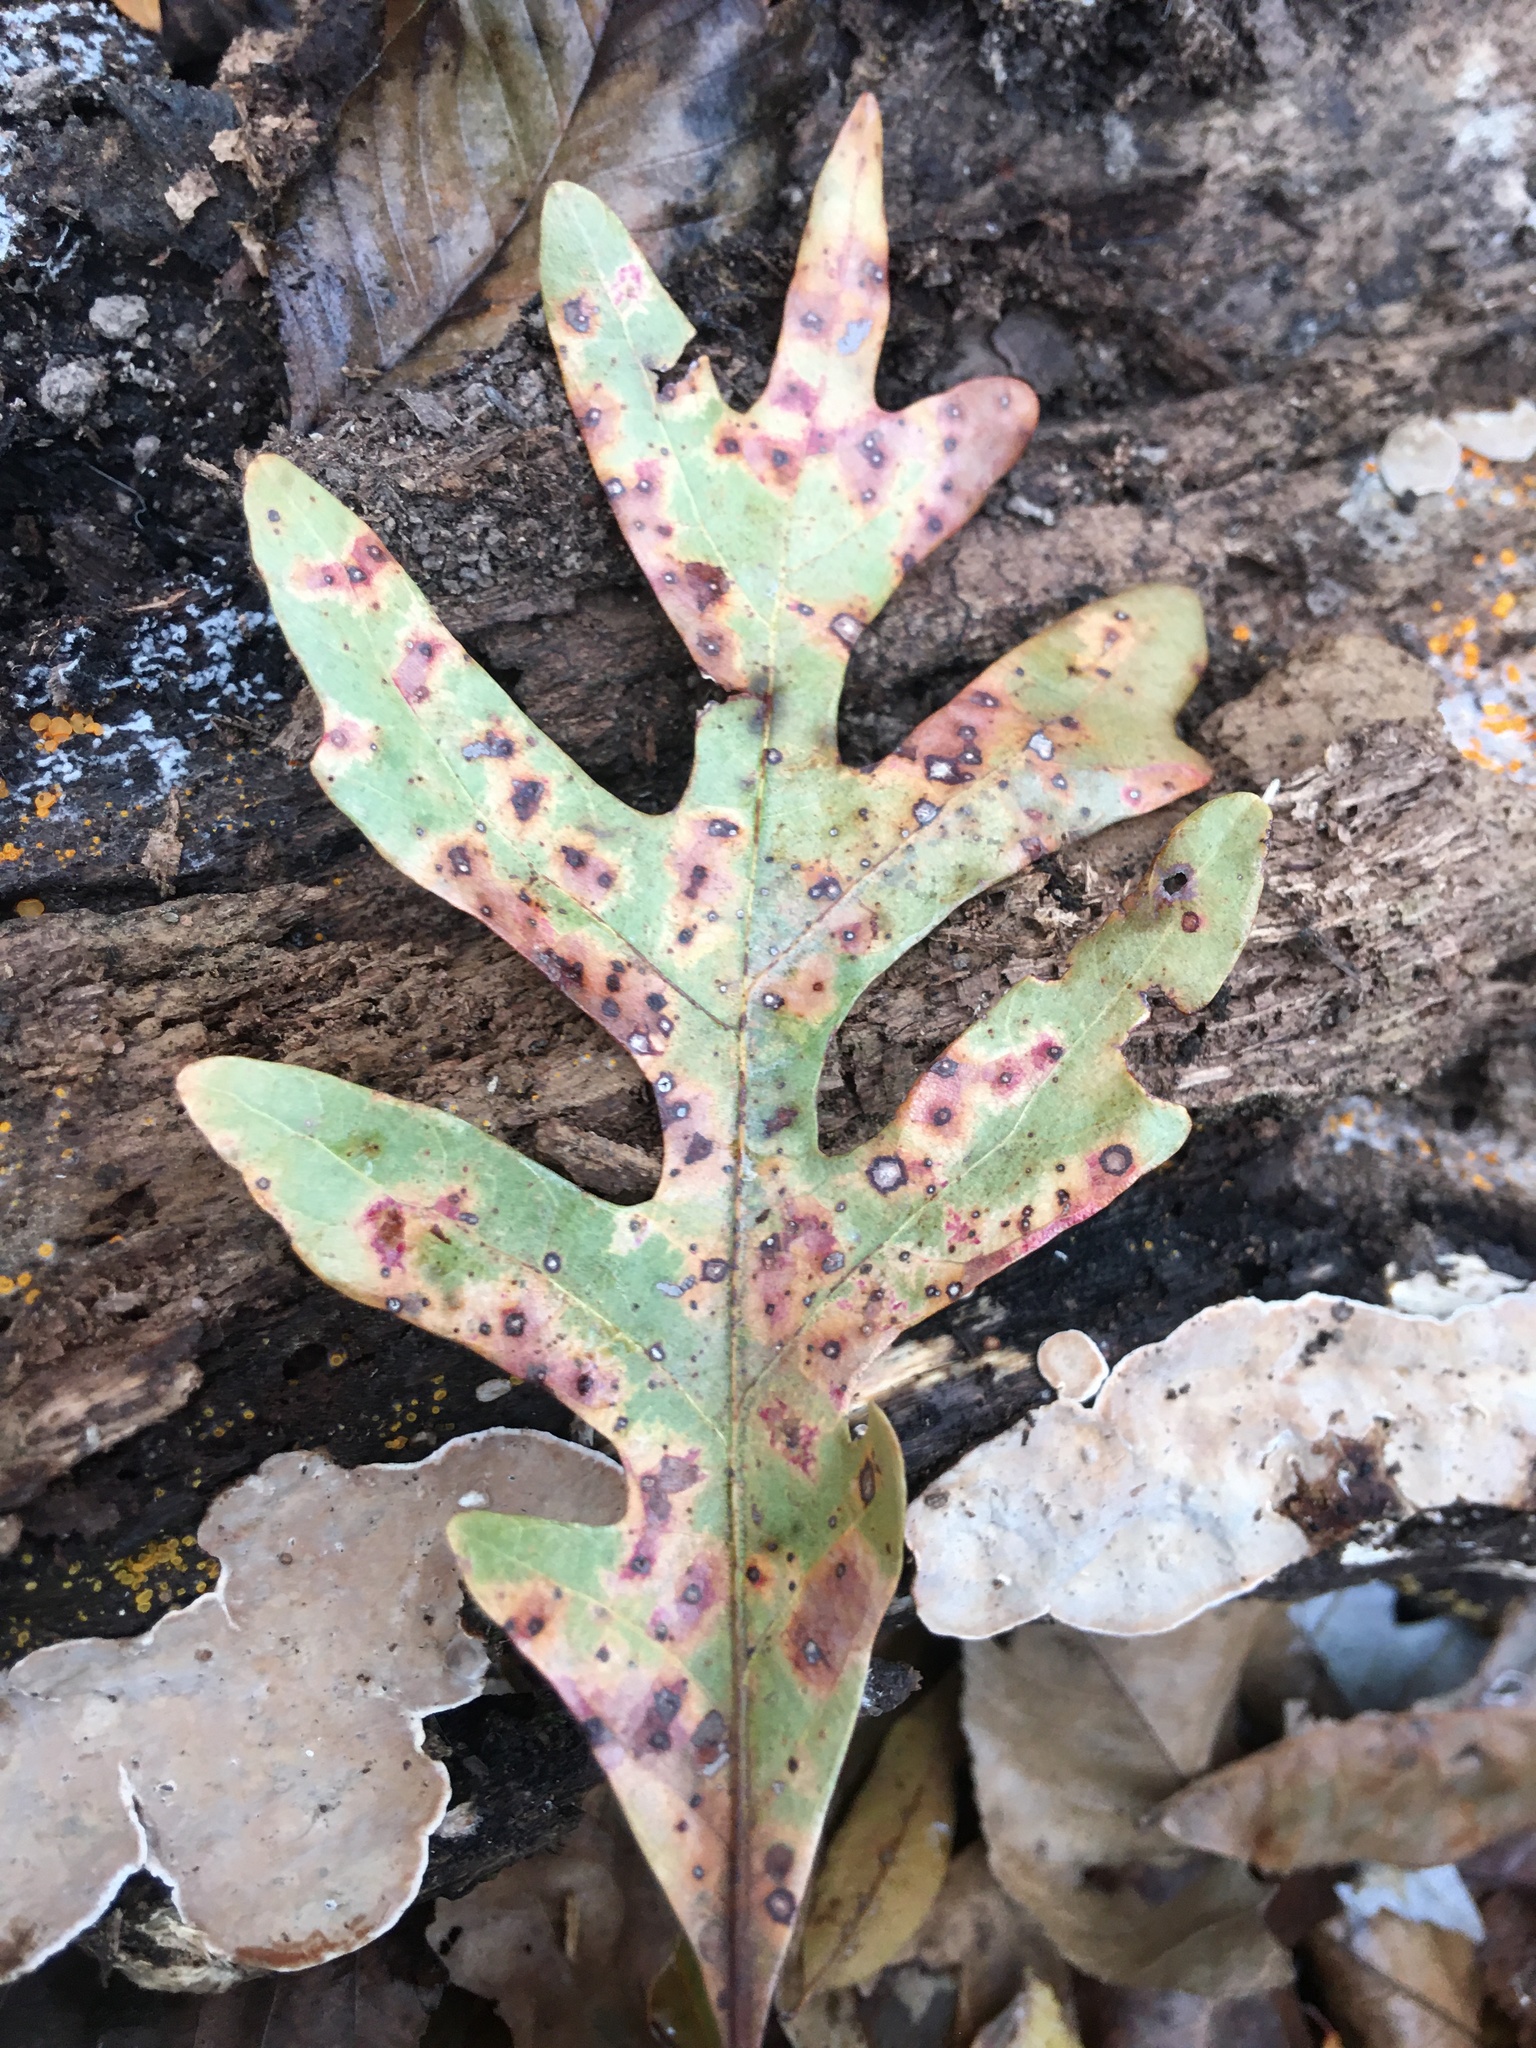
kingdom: Plantae
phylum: Tracheophyta
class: Magnoliopsida
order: Fagales
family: Fagaceae
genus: Quercus
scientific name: Quercus alba
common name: White oak
